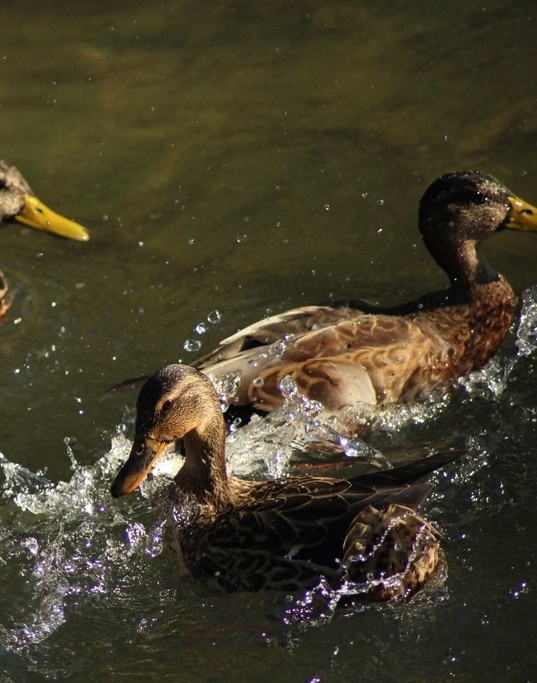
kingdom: Animalia
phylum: Chordata
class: Aves
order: Anseriformes
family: Anatidae
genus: Anas
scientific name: Anas platyrhynchos
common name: Mallard
